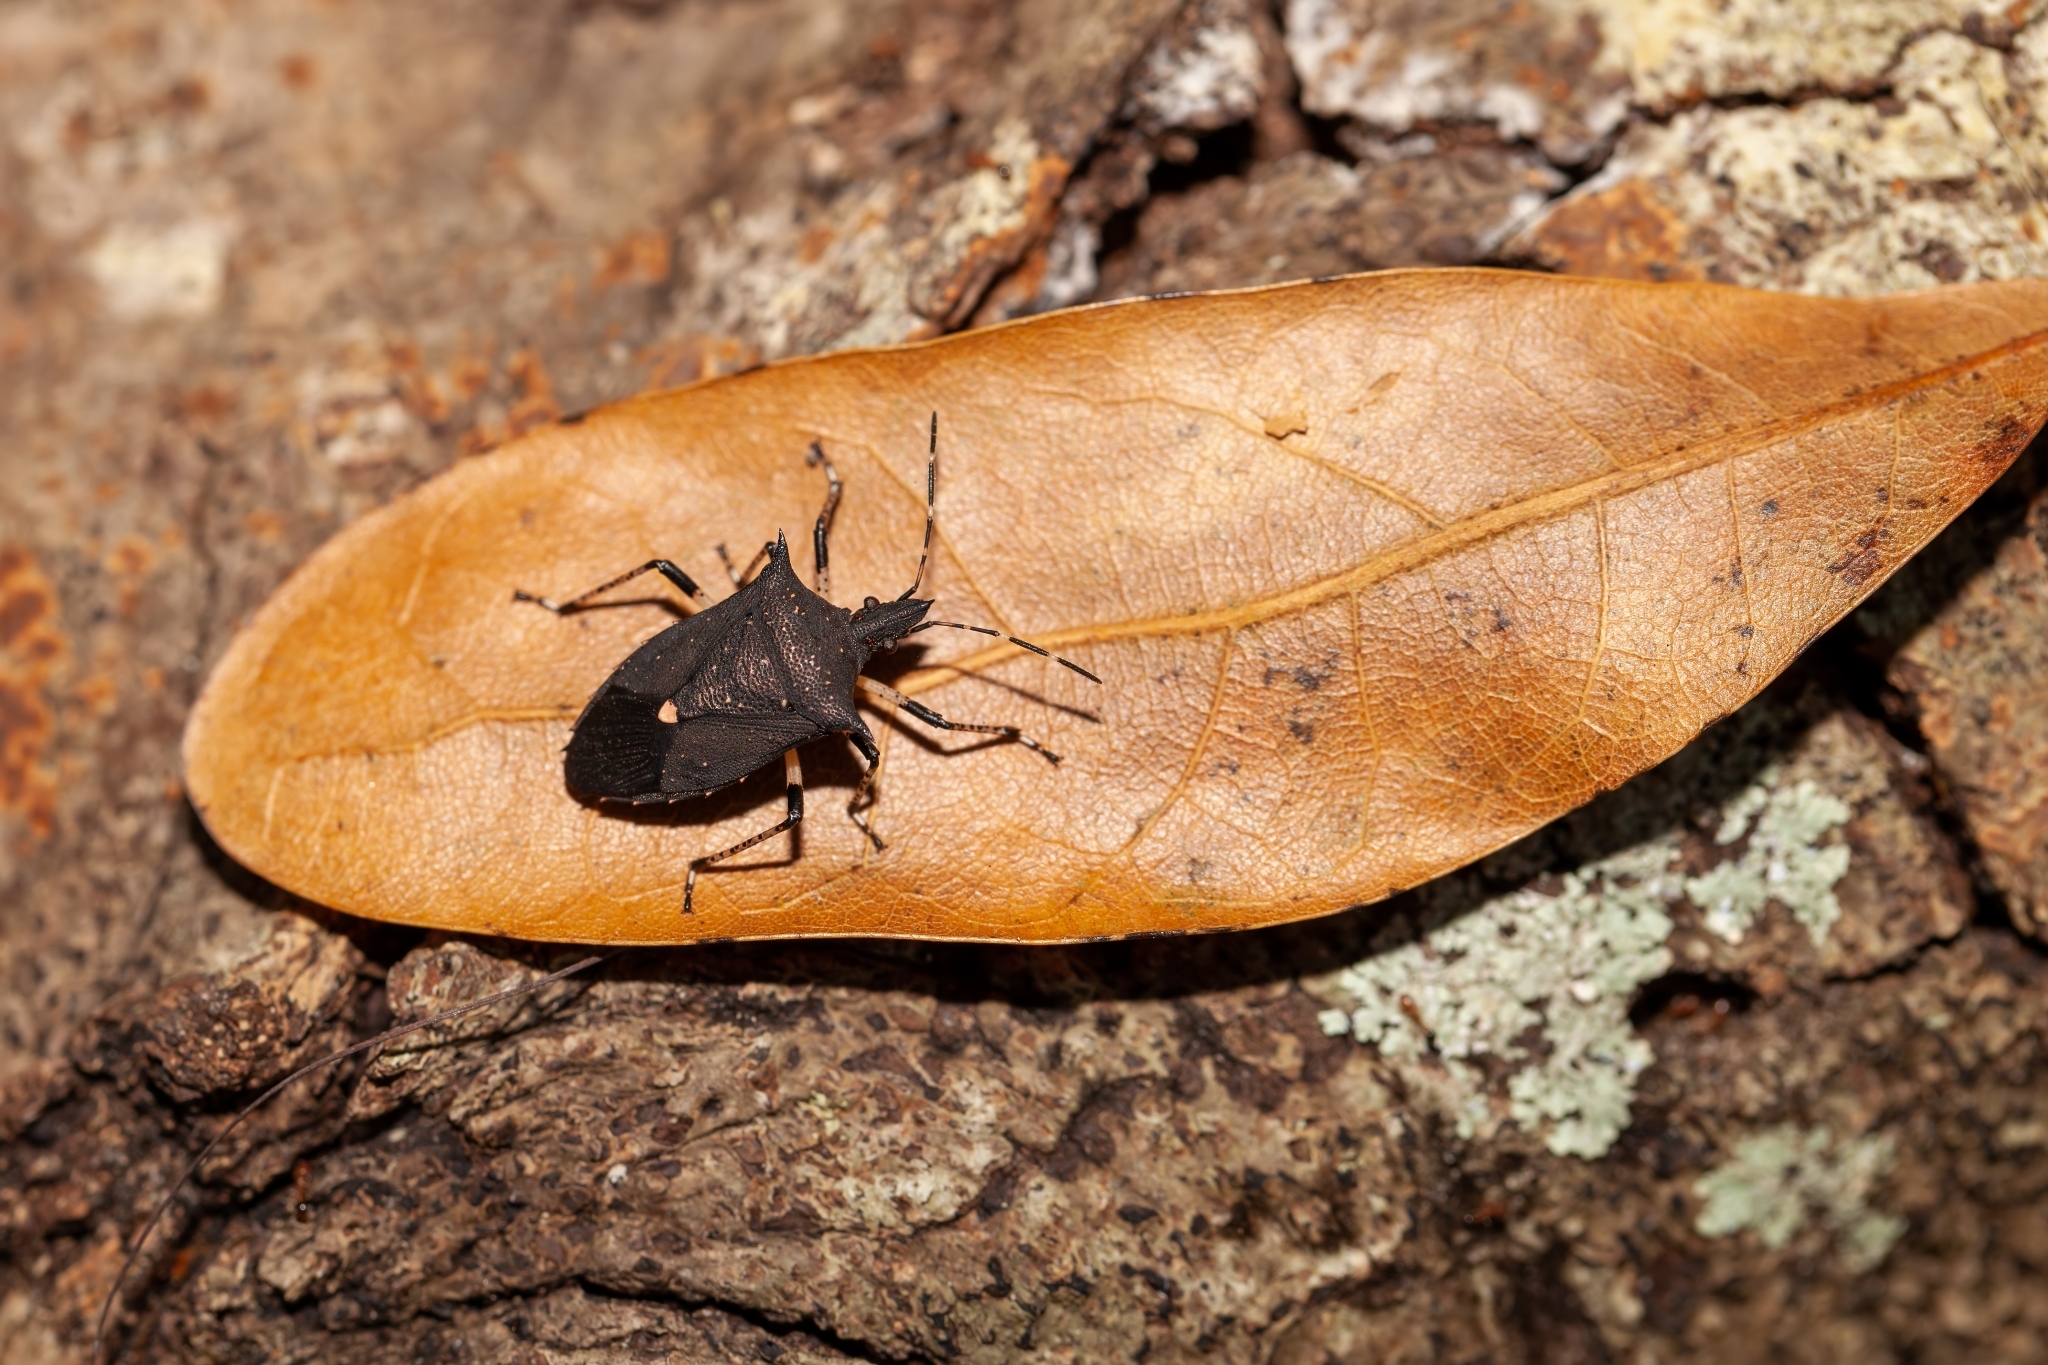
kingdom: Animalia
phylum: Arthropoda
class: Insecta
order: Hemiptera
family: Pentatomidae
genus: Proxys
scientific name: Proxys punctulatus
